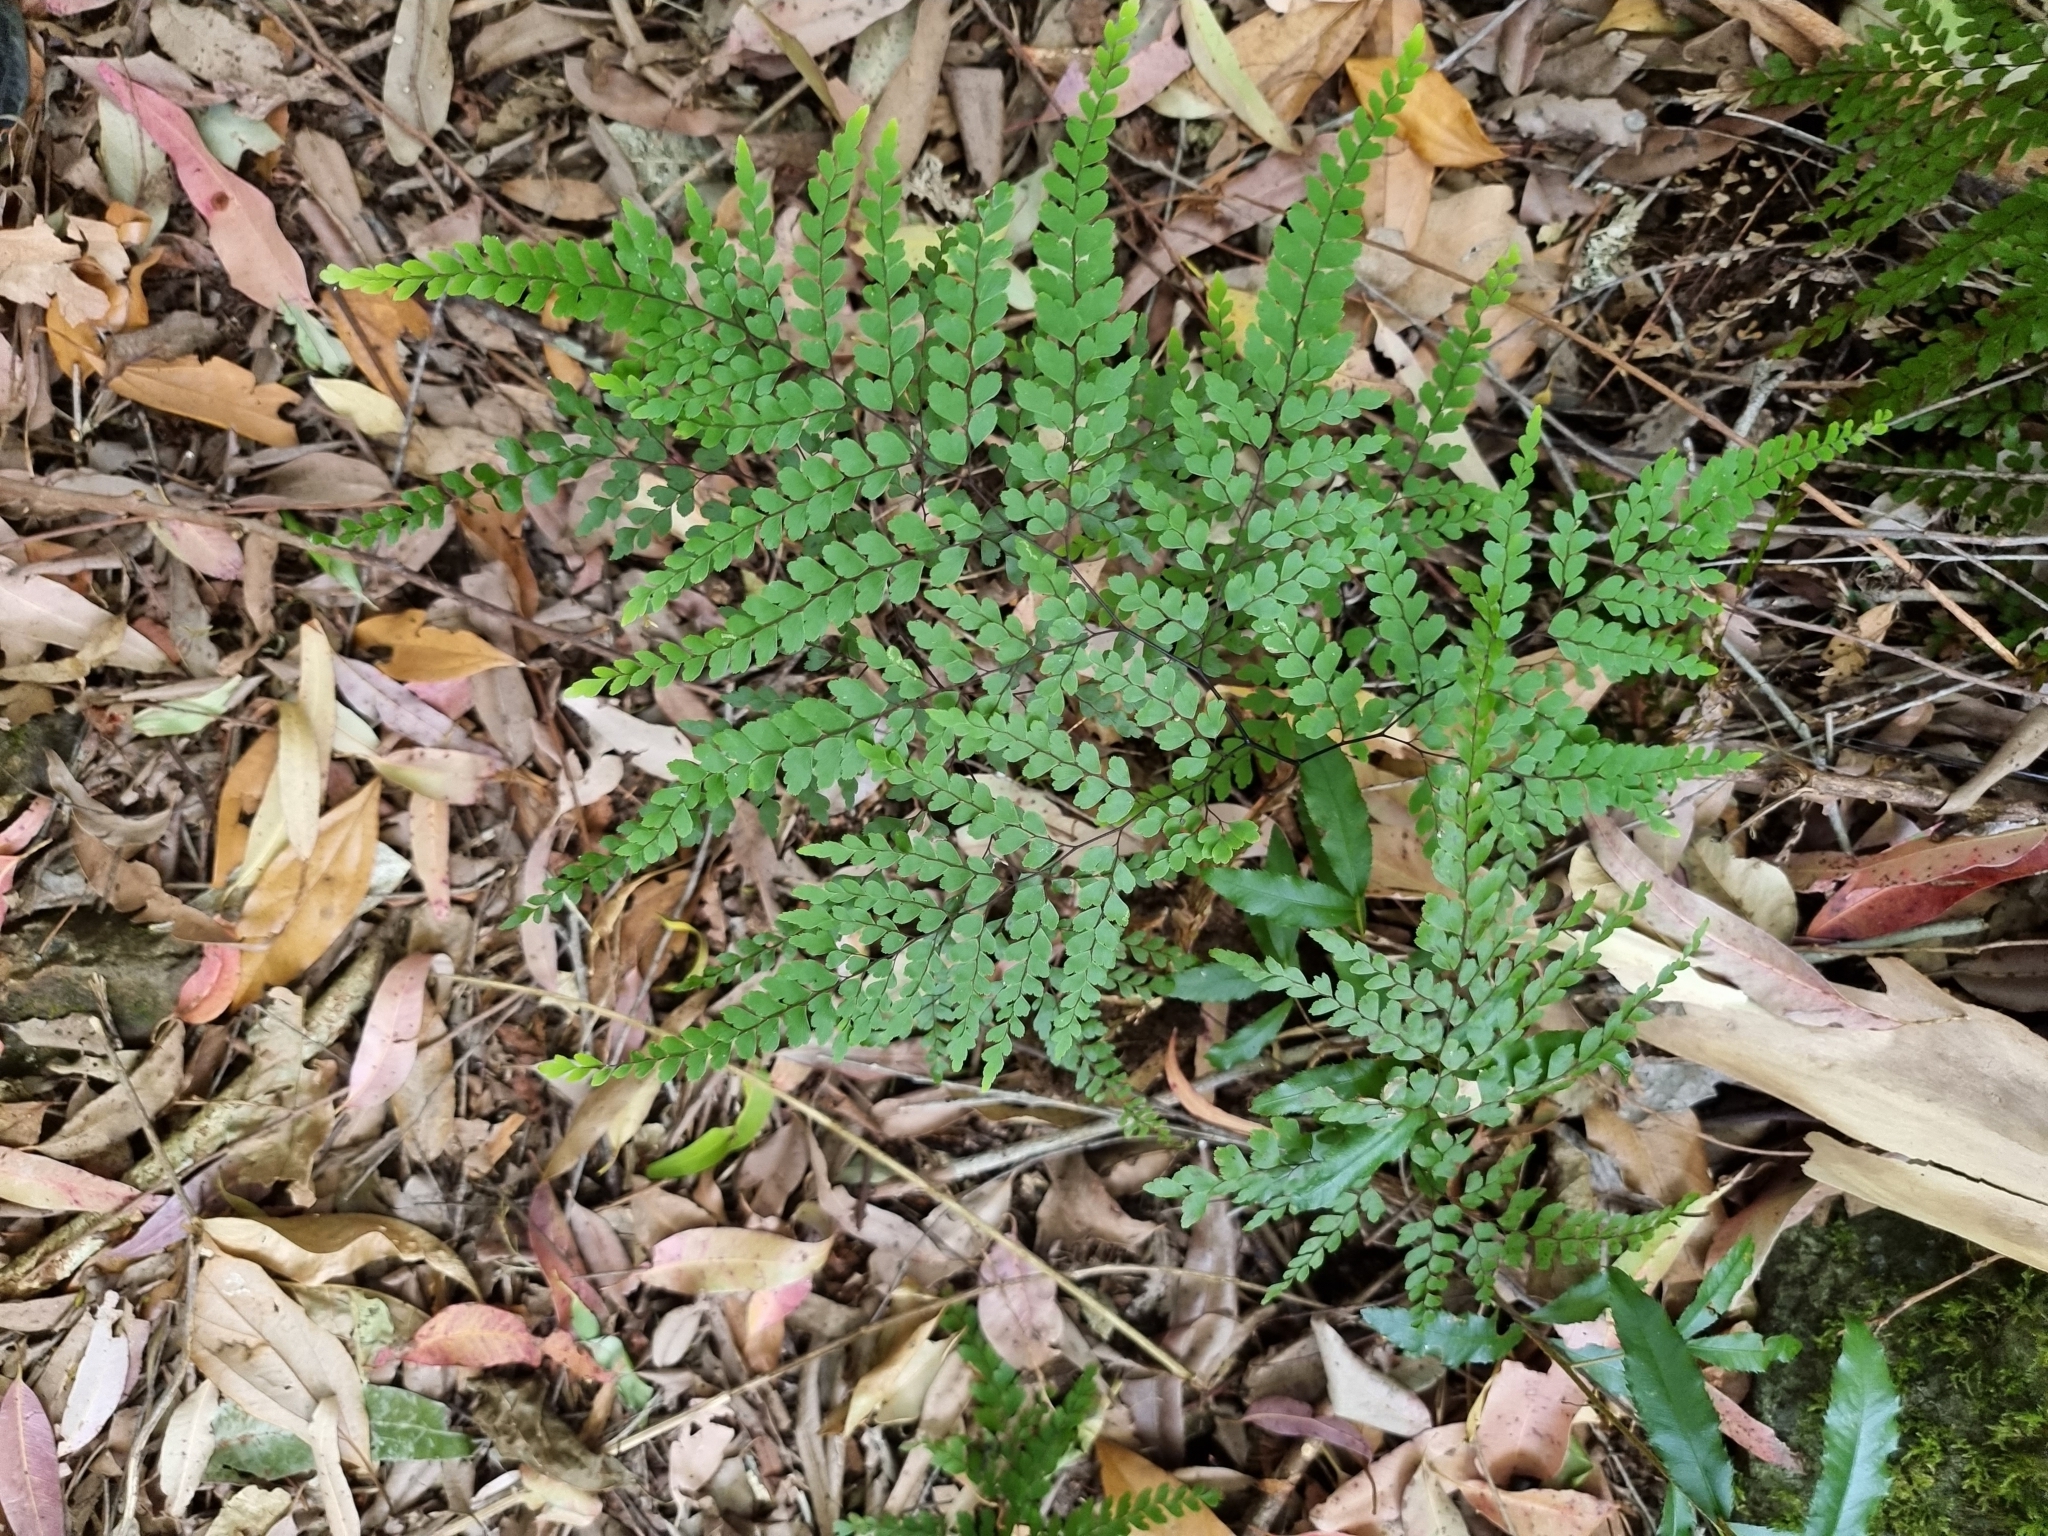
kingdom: Plantae
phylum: Tracheophyta
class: Polypodiopsida
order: Polypodiales
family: Pteridaceae
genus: Adiantum
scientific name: Adiantum formosum
